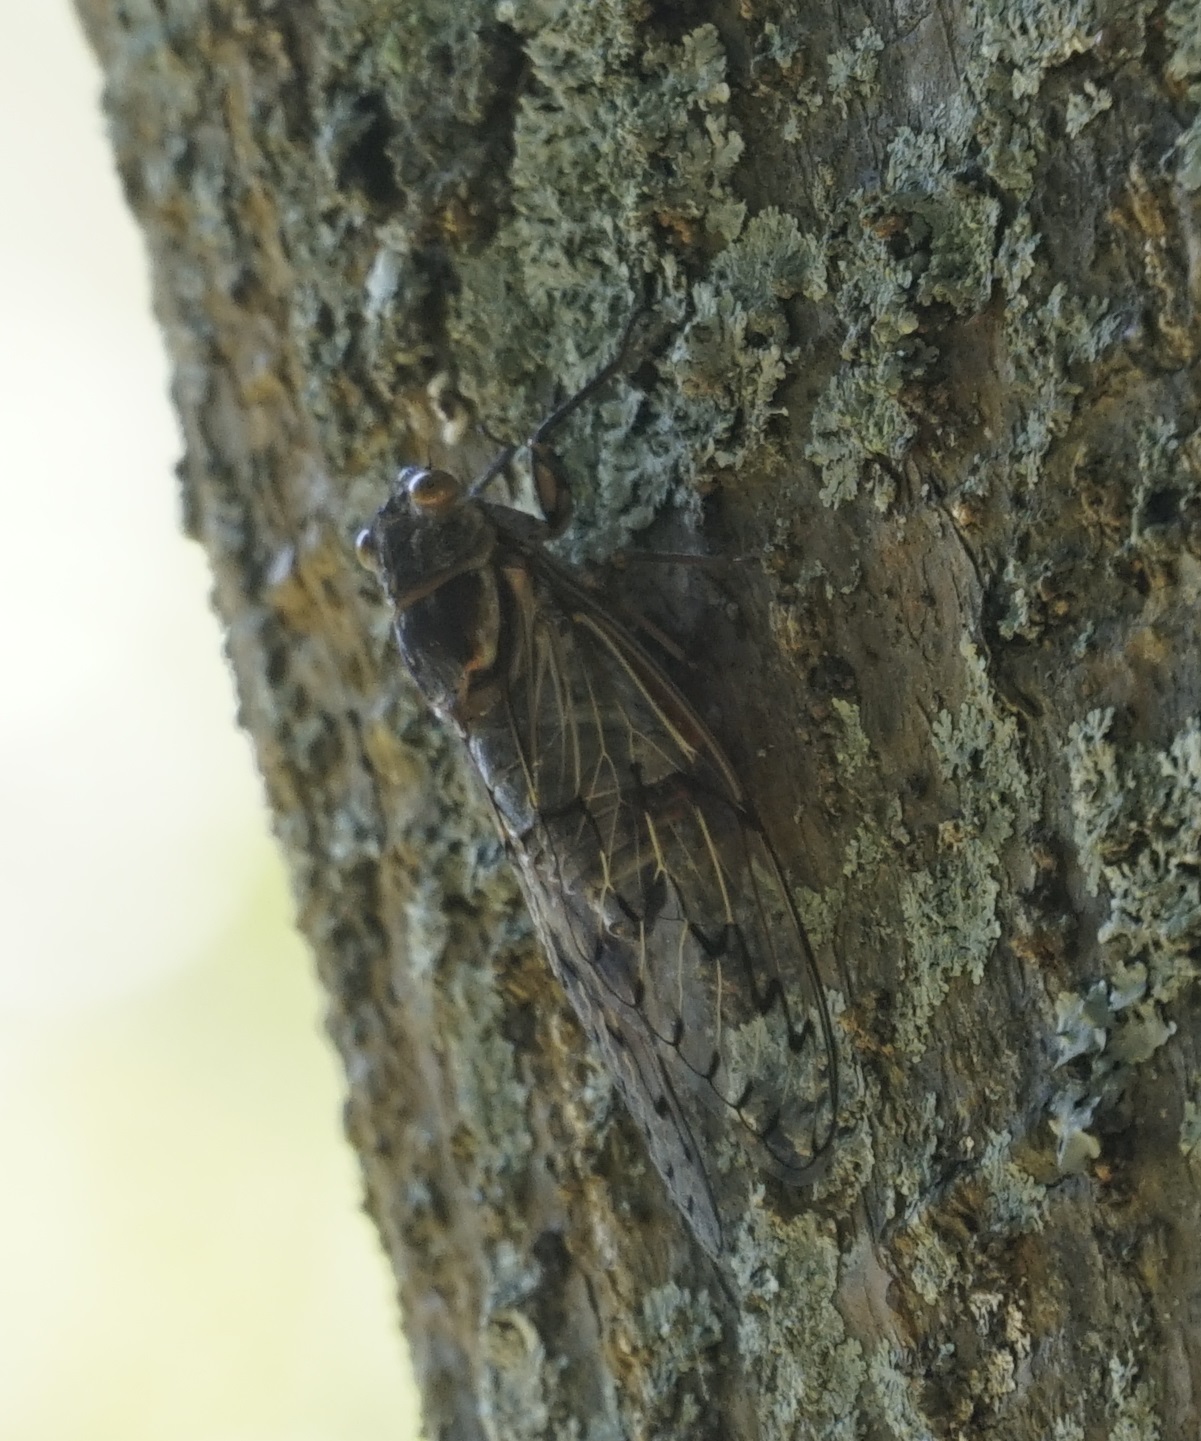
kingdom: Animalia
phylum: Arthropoda
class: Insecta
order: Hemiptera
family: Cicadidae
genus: Henicopsaltria
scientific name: Henicopsaltria eydouxii
